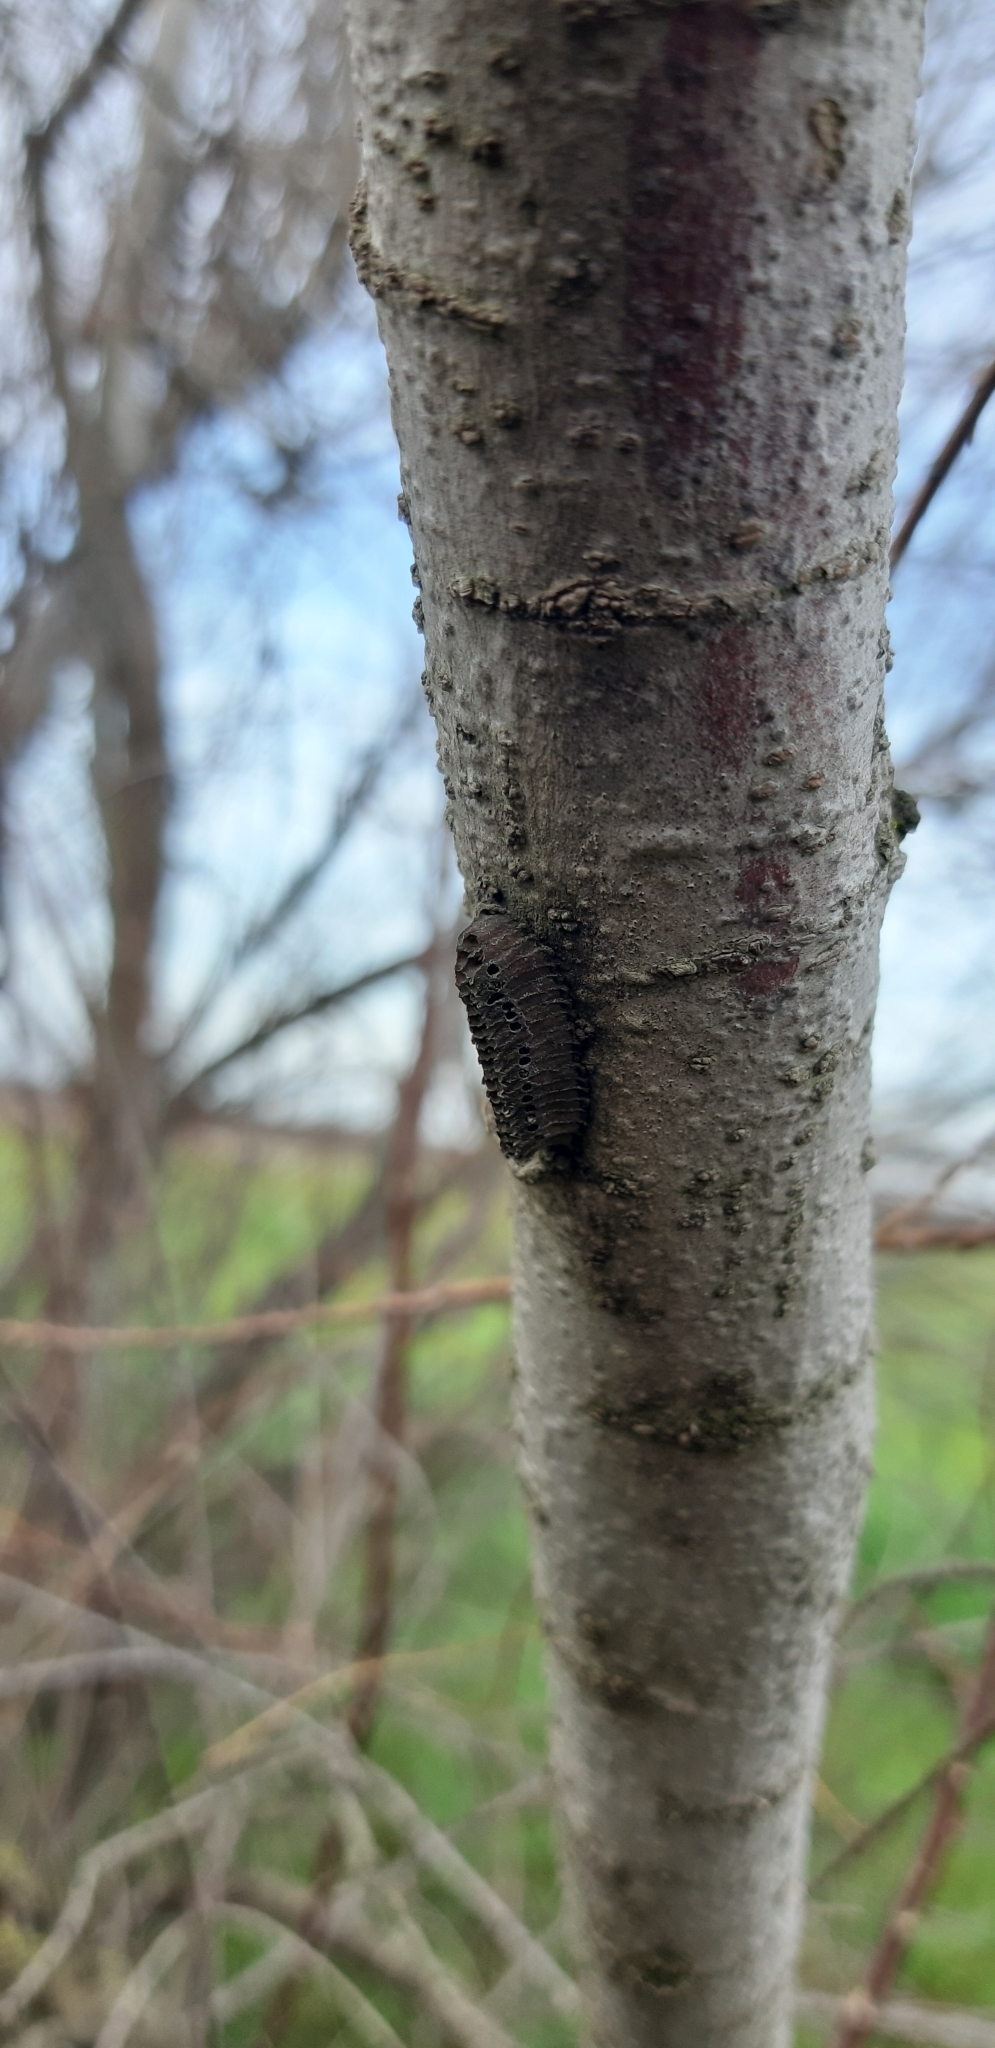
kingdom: Animalia
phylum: Arthropoda
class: Insecta
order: Mantodea
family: Eremiaphilidae
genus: Iris
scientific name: Iris oratoria
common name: Mediterranean mantis
